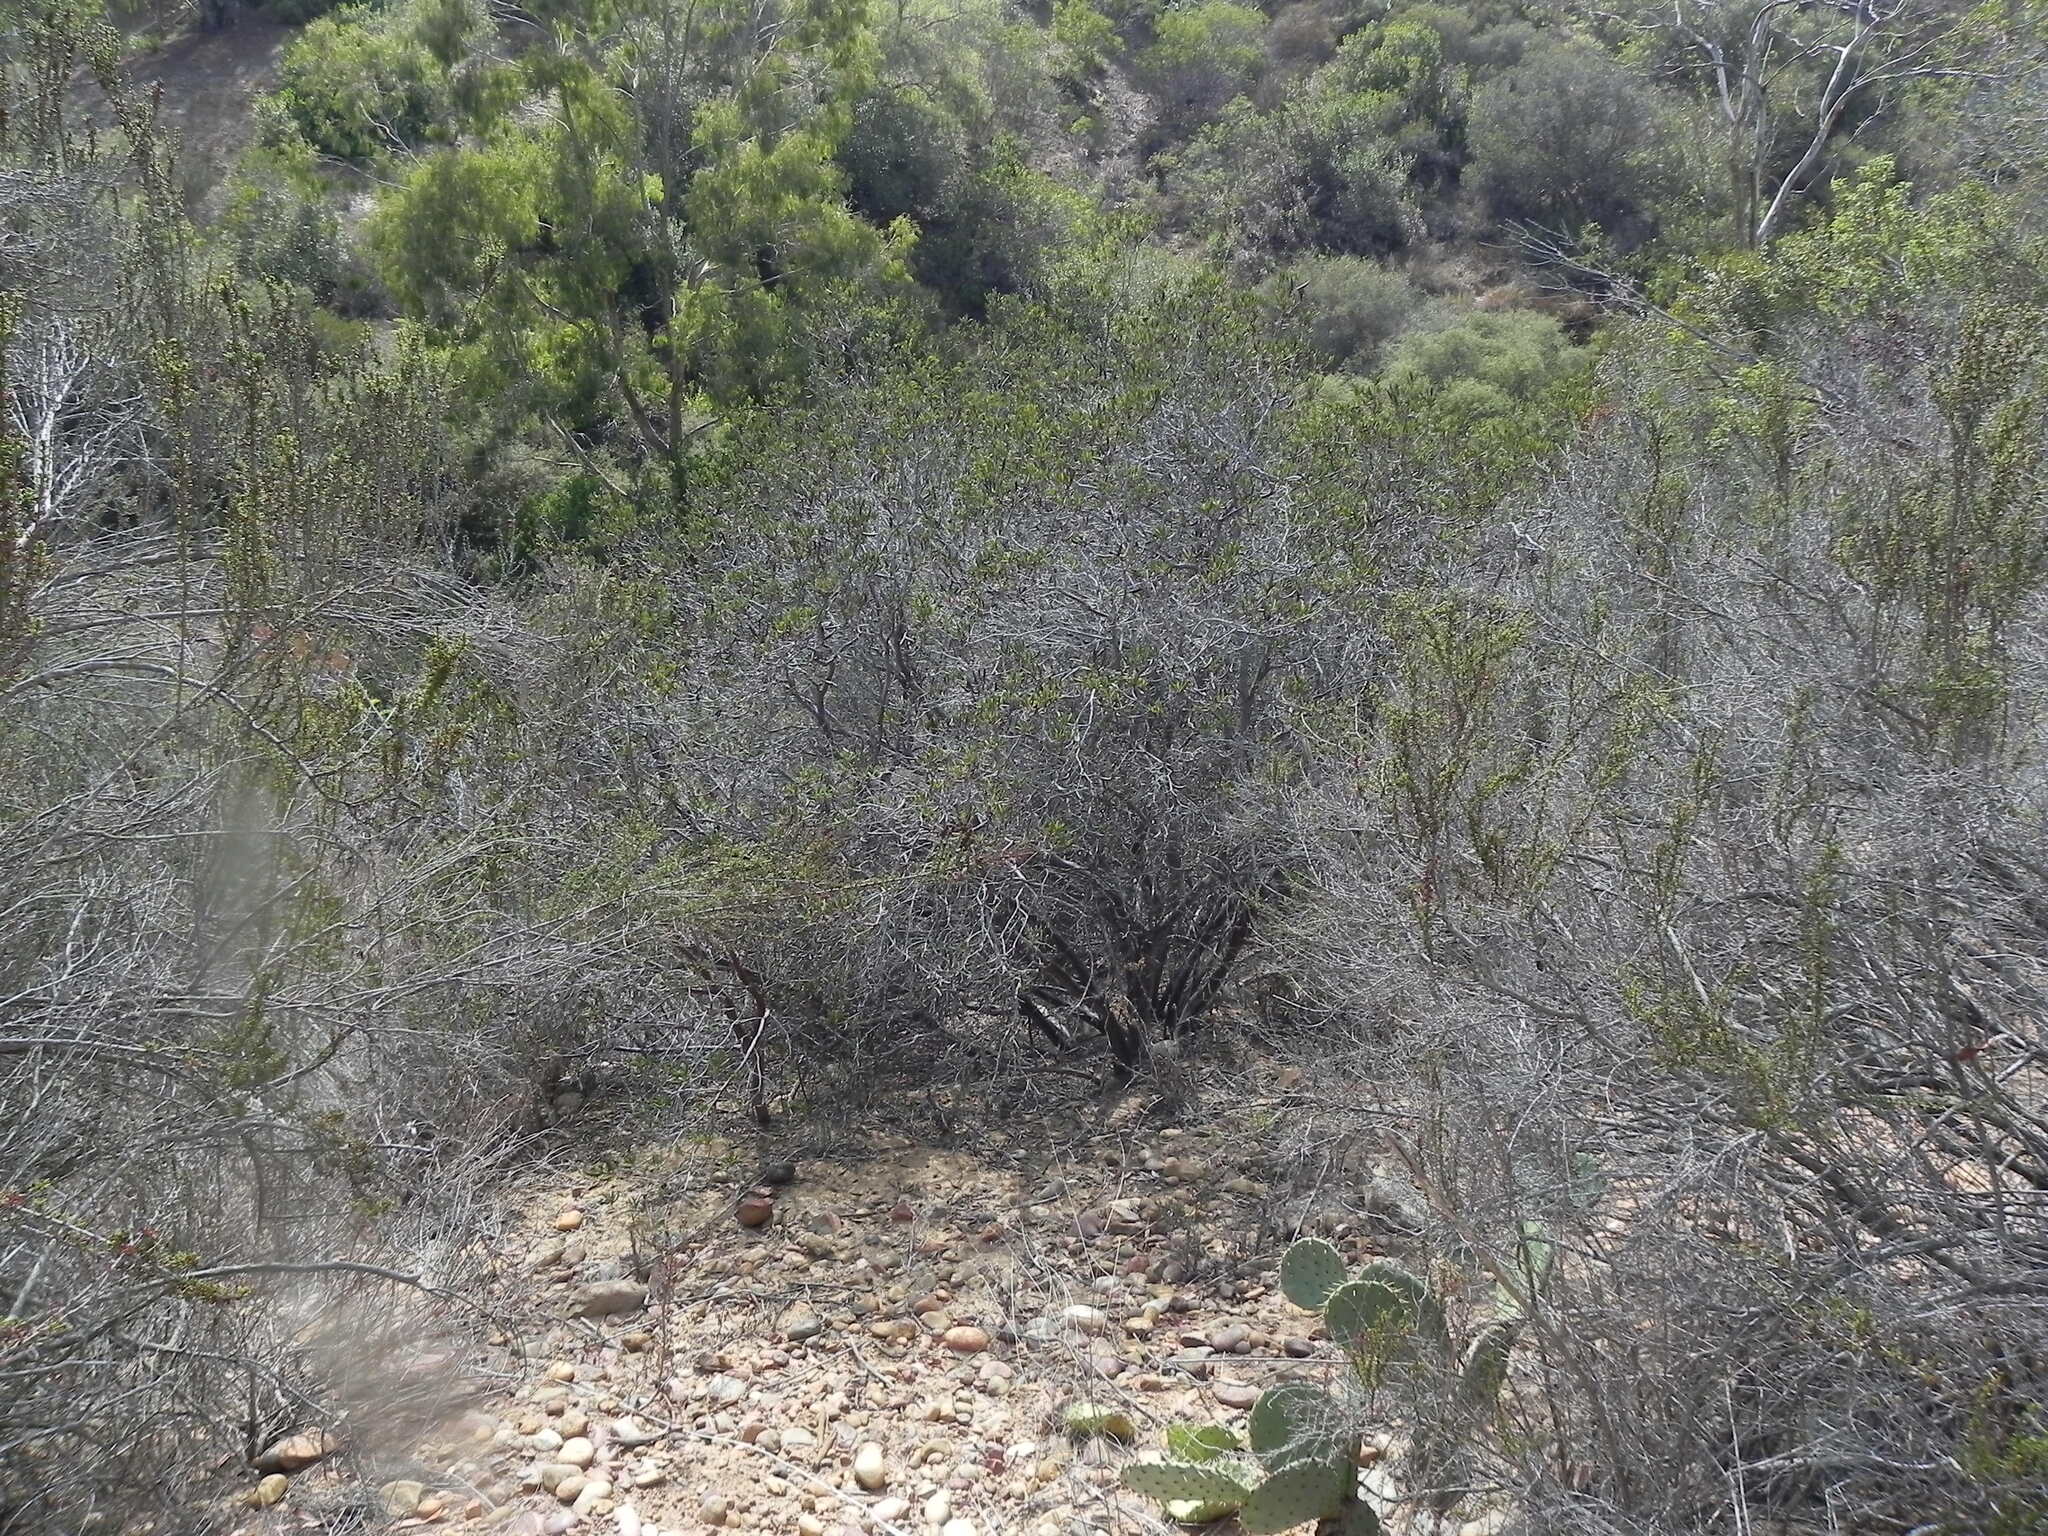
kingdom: Plantae
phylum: Tracheophyta
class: Magnoliopsida
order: Ericales
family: Ericaceae
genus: Arctostaphylos
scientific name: Arctostaphylos bicolor
